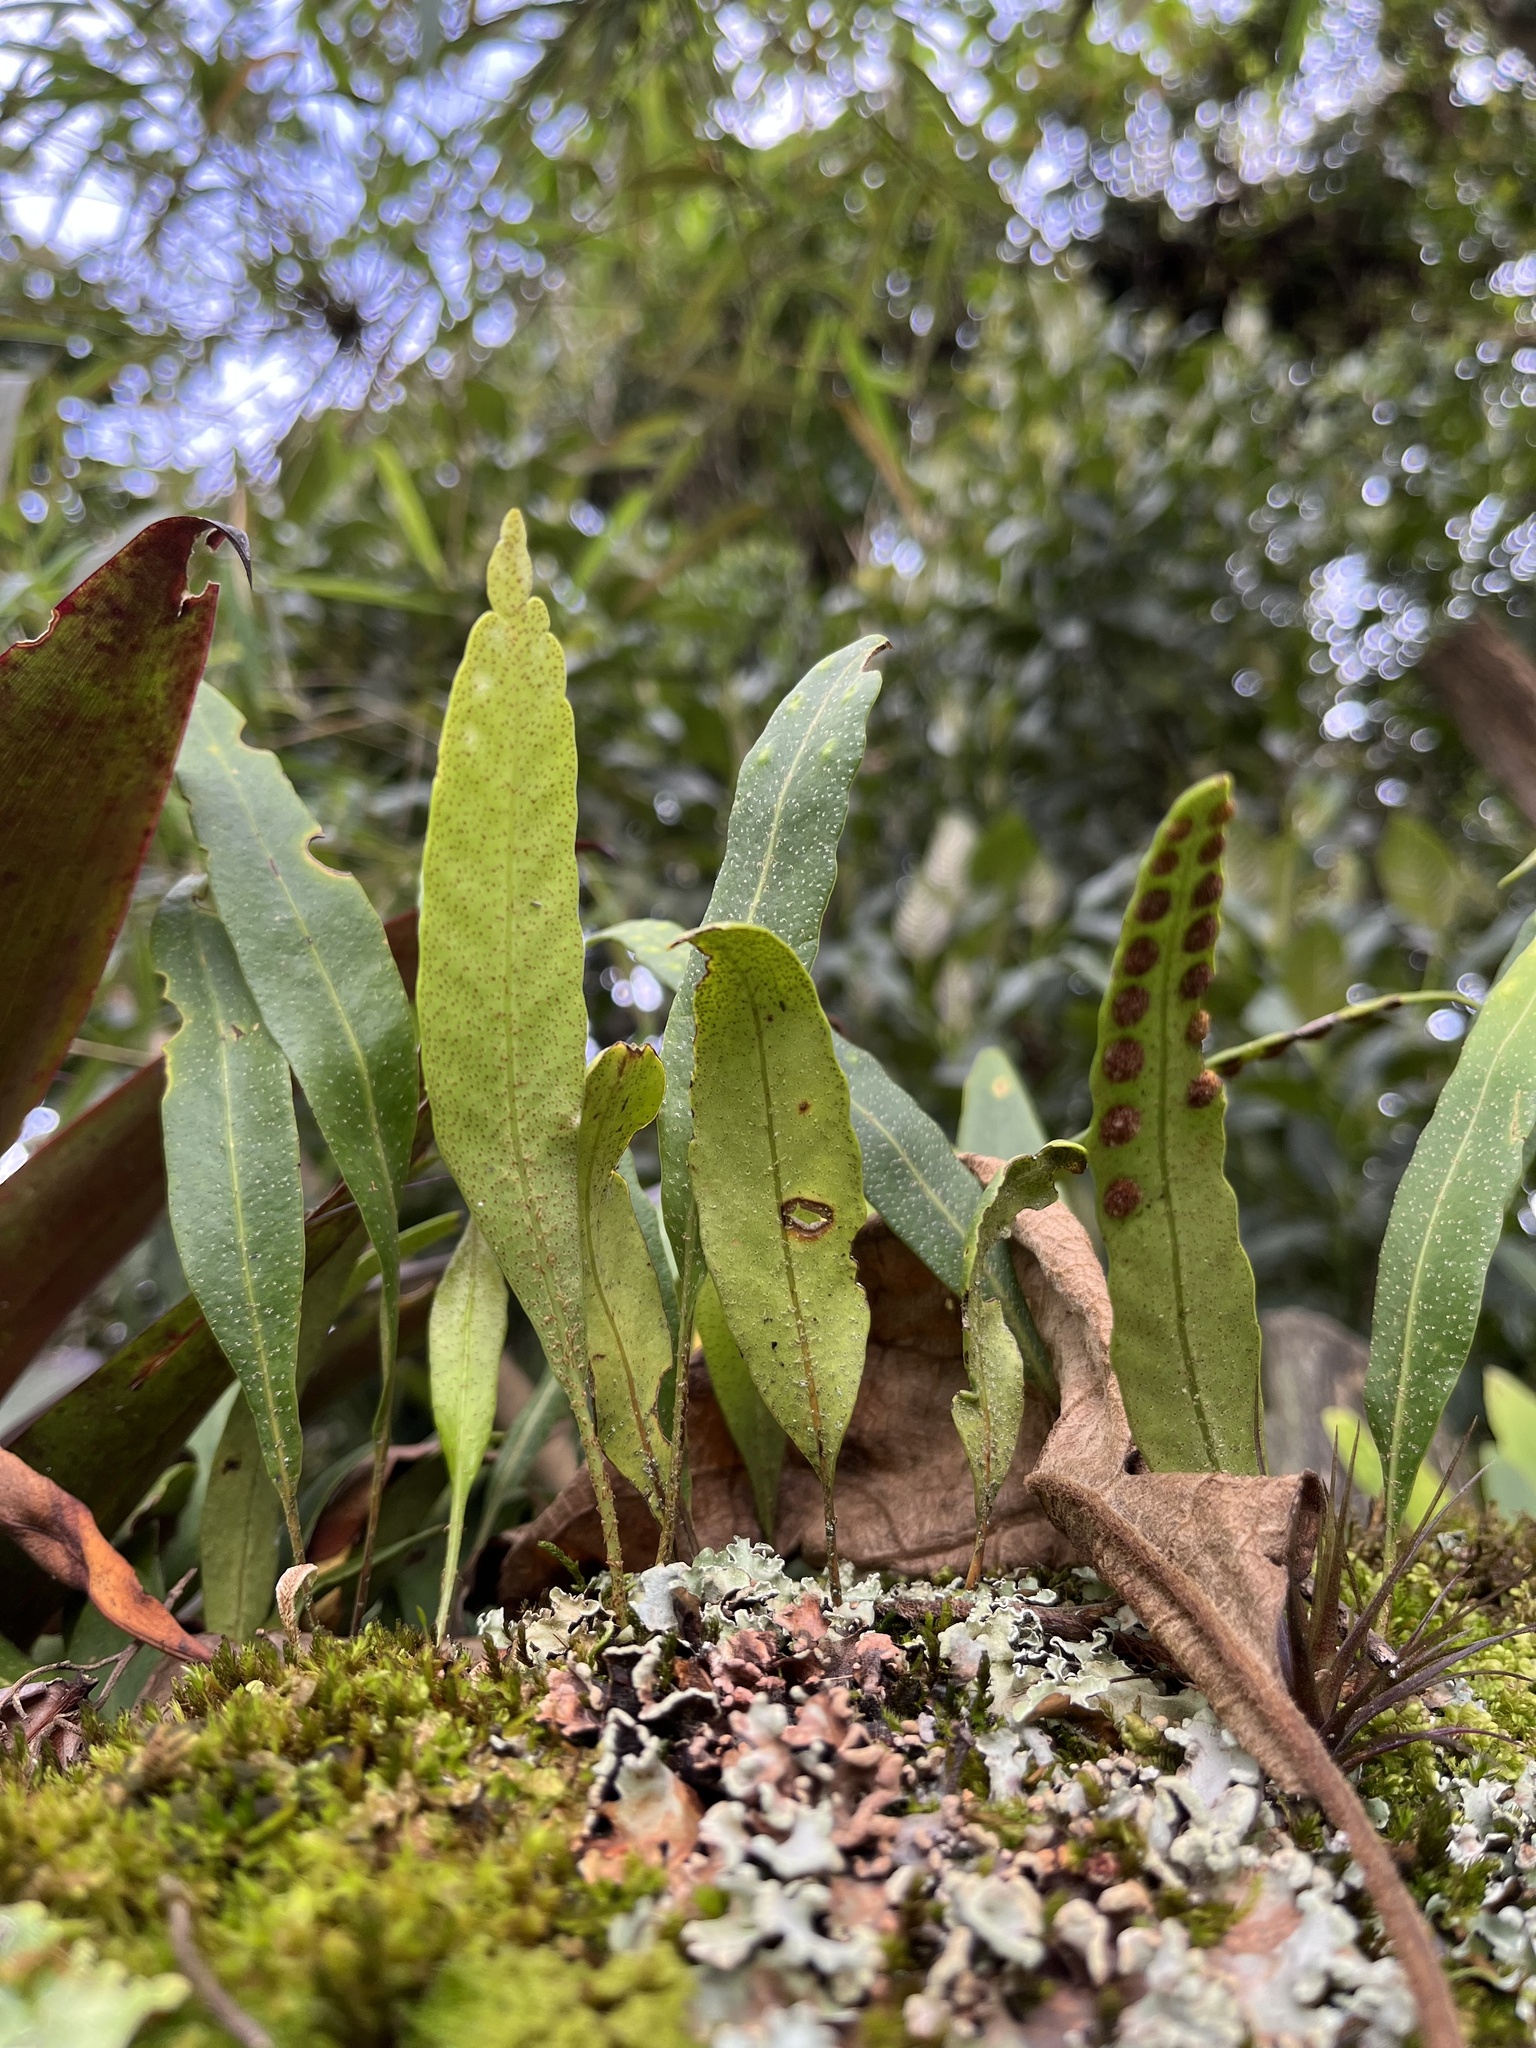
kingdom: Plantae
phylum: Tracheophyta
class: Polypodiopsida
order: Polypodiales
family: Polypodiaceae
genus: Pleopeltis
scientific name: Pleopeltis macrocarpa
